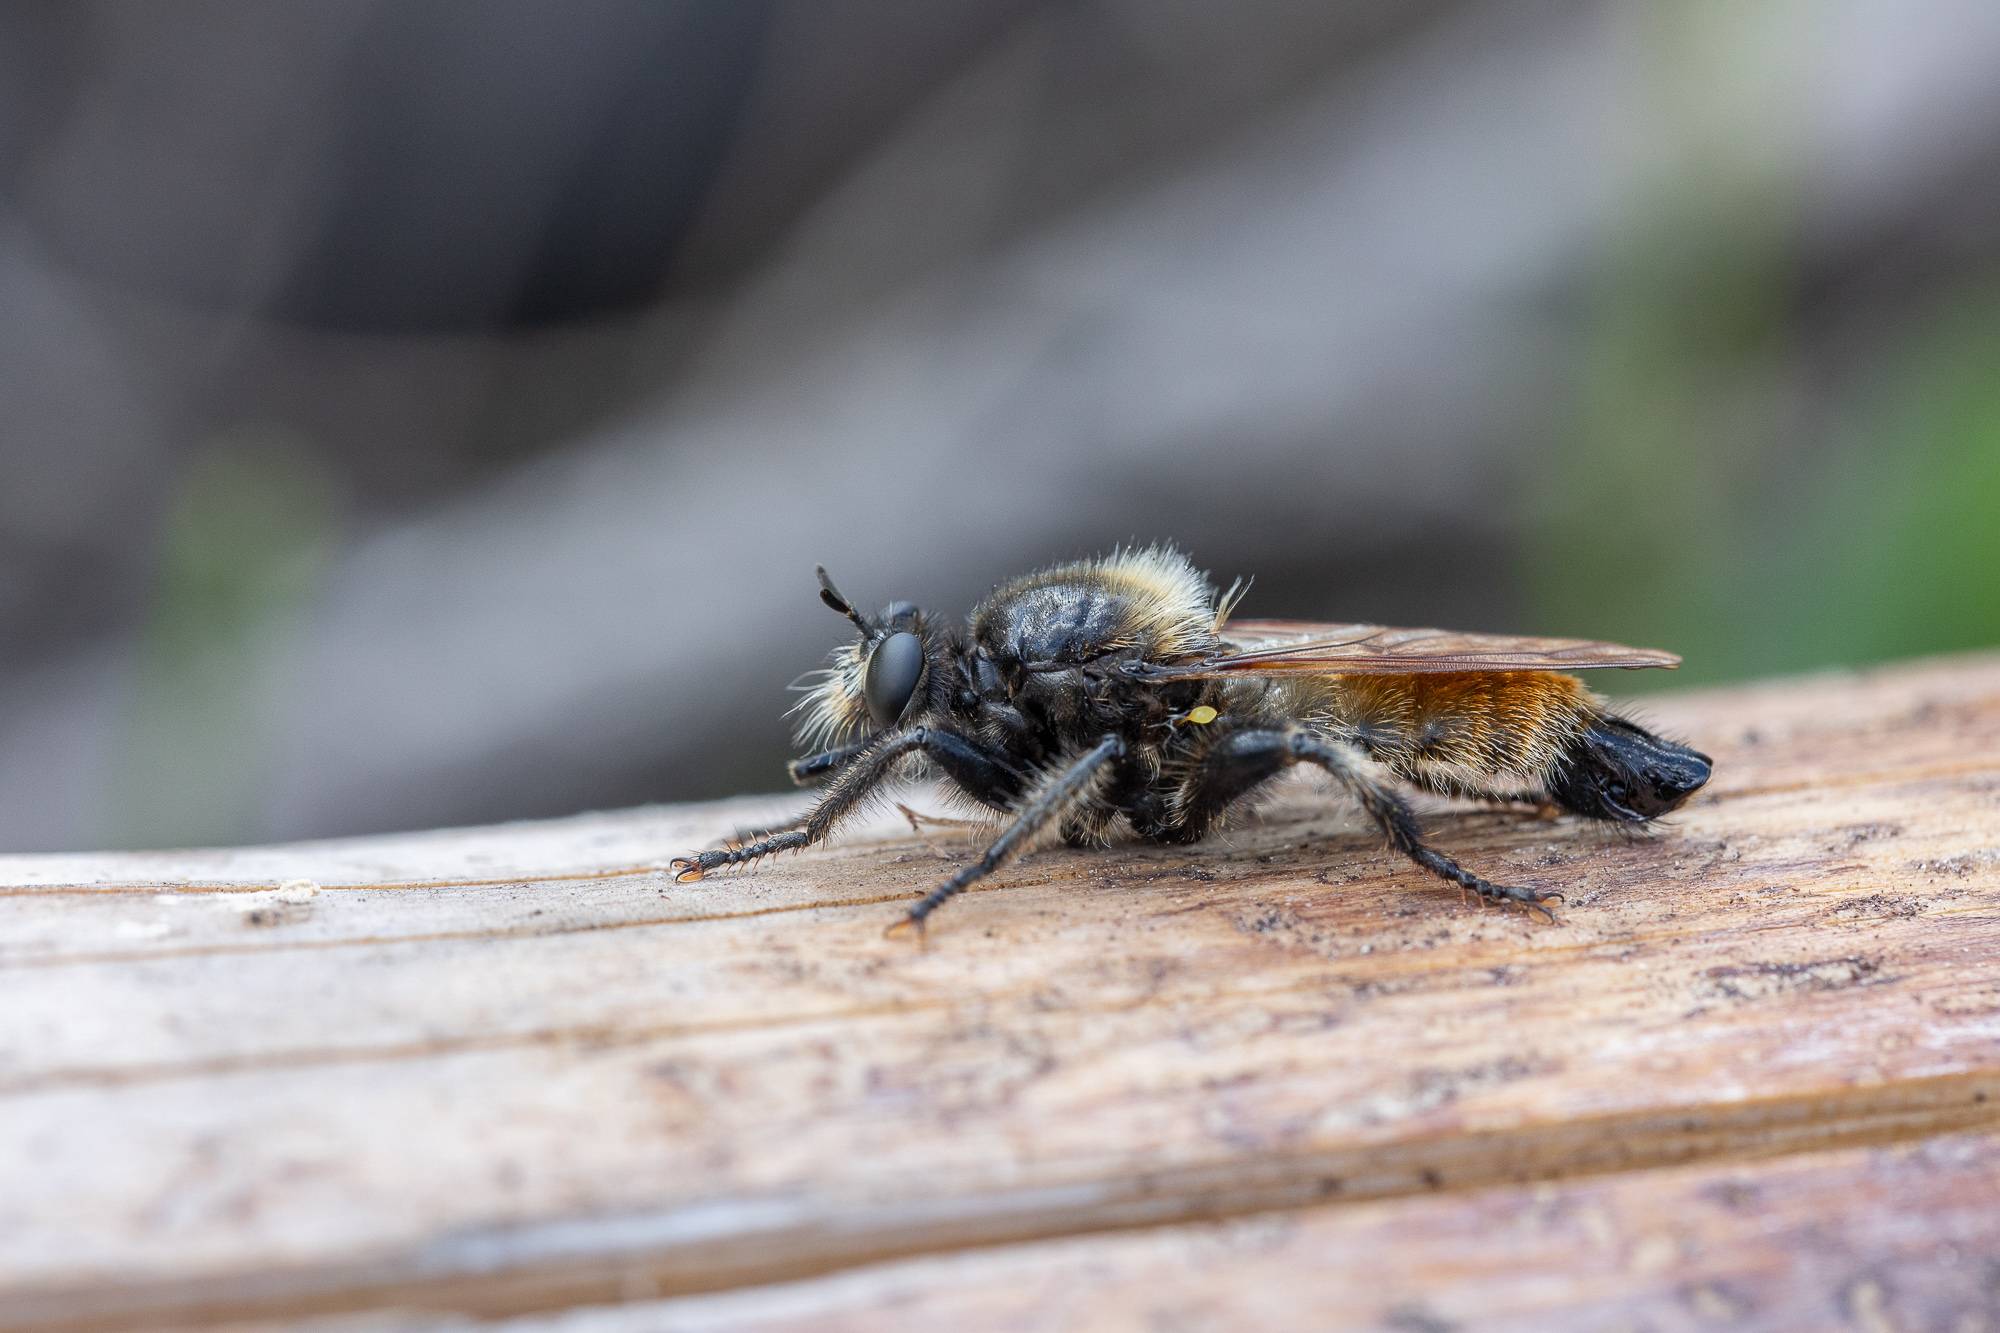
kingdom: Animalia
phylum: Arthropoda
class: Insecta
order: Diptera
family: Asilidae
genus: Laphria
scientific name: Laphria flava
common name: Bumblebee robberfly
